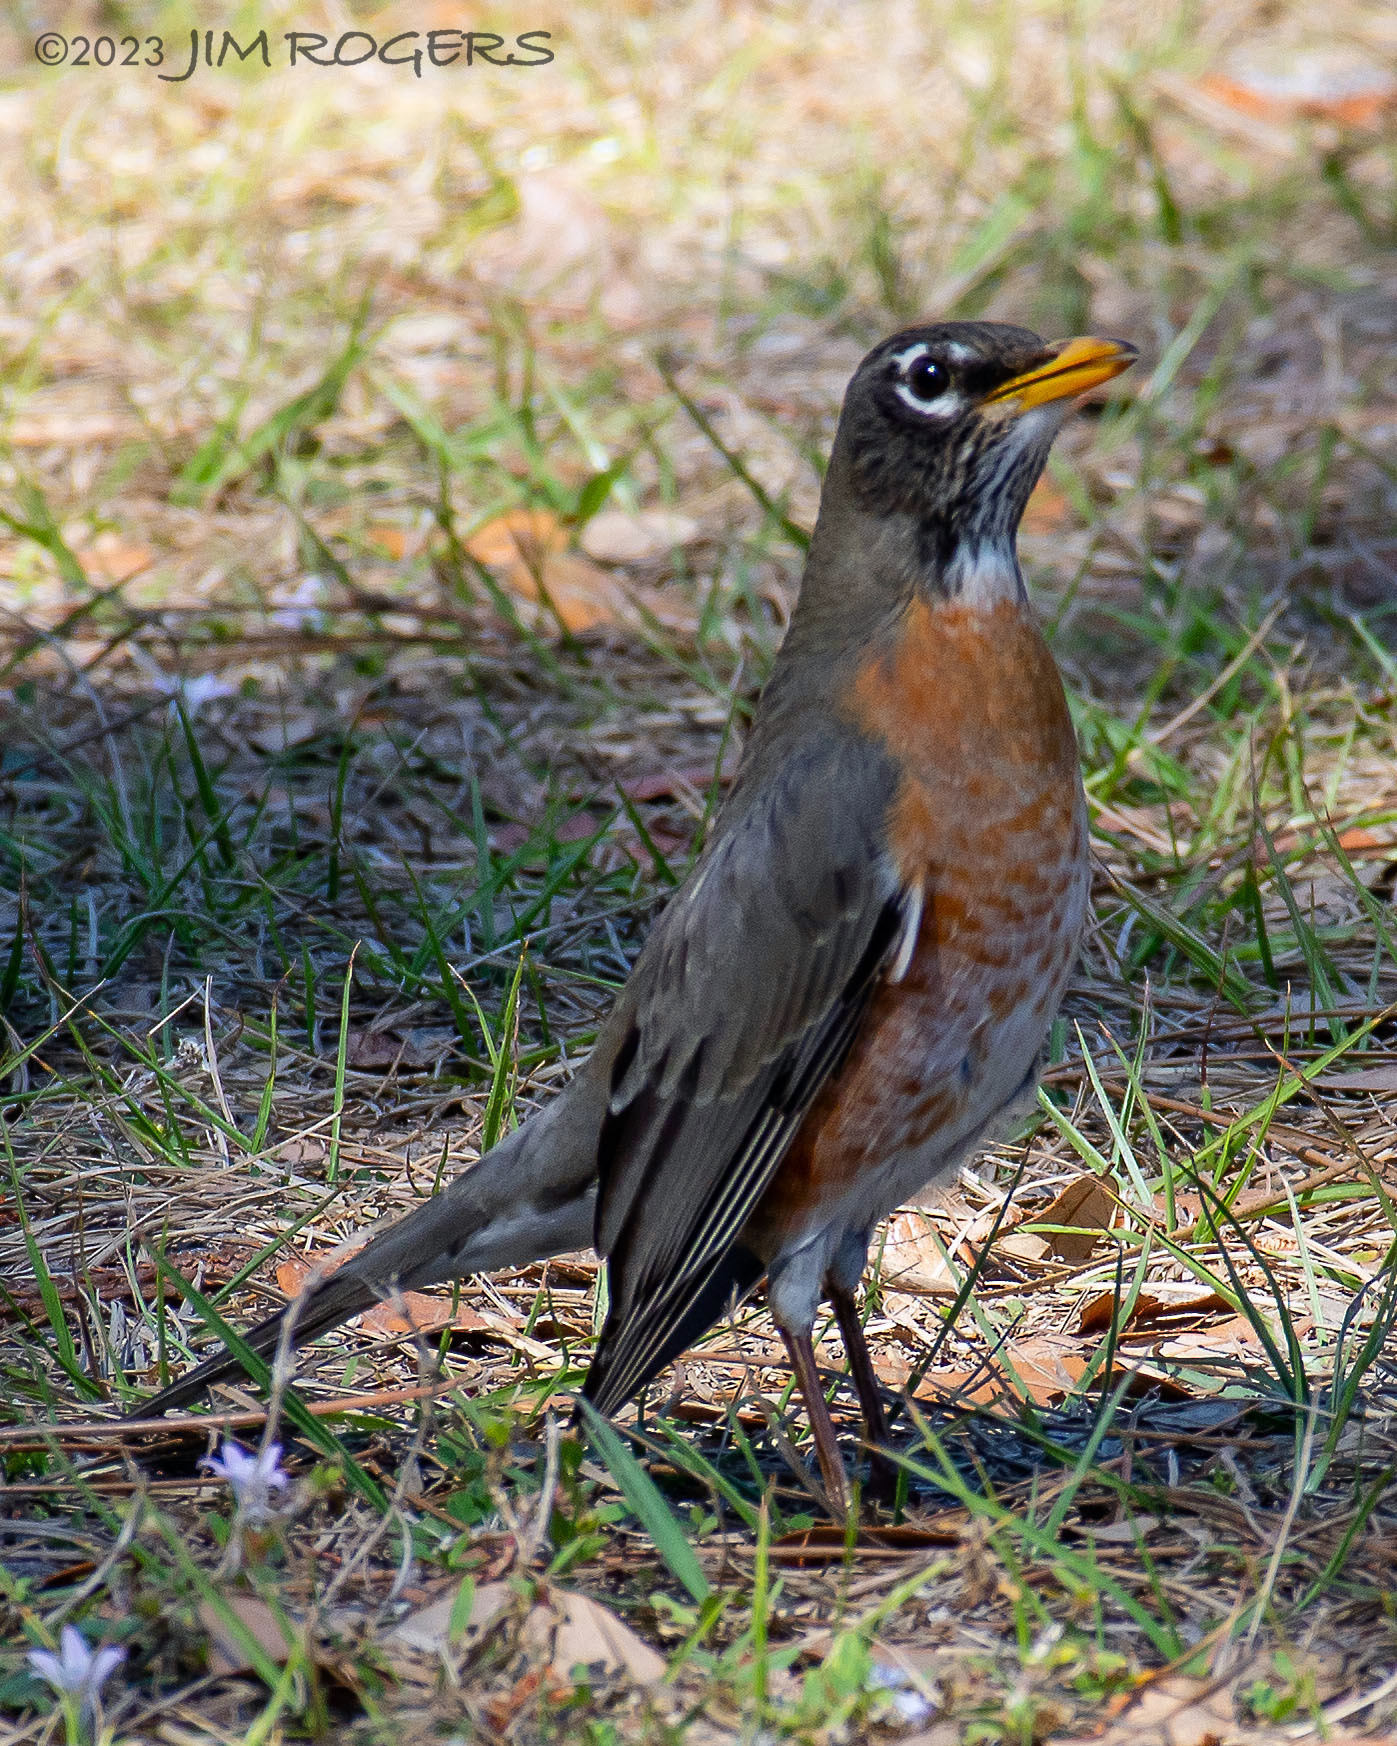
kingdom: Animalia
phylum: Chordata
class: Aves
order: Passeriformes
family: Turdidae
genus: Turdus
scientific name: Turdus migratorius
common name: American robin
